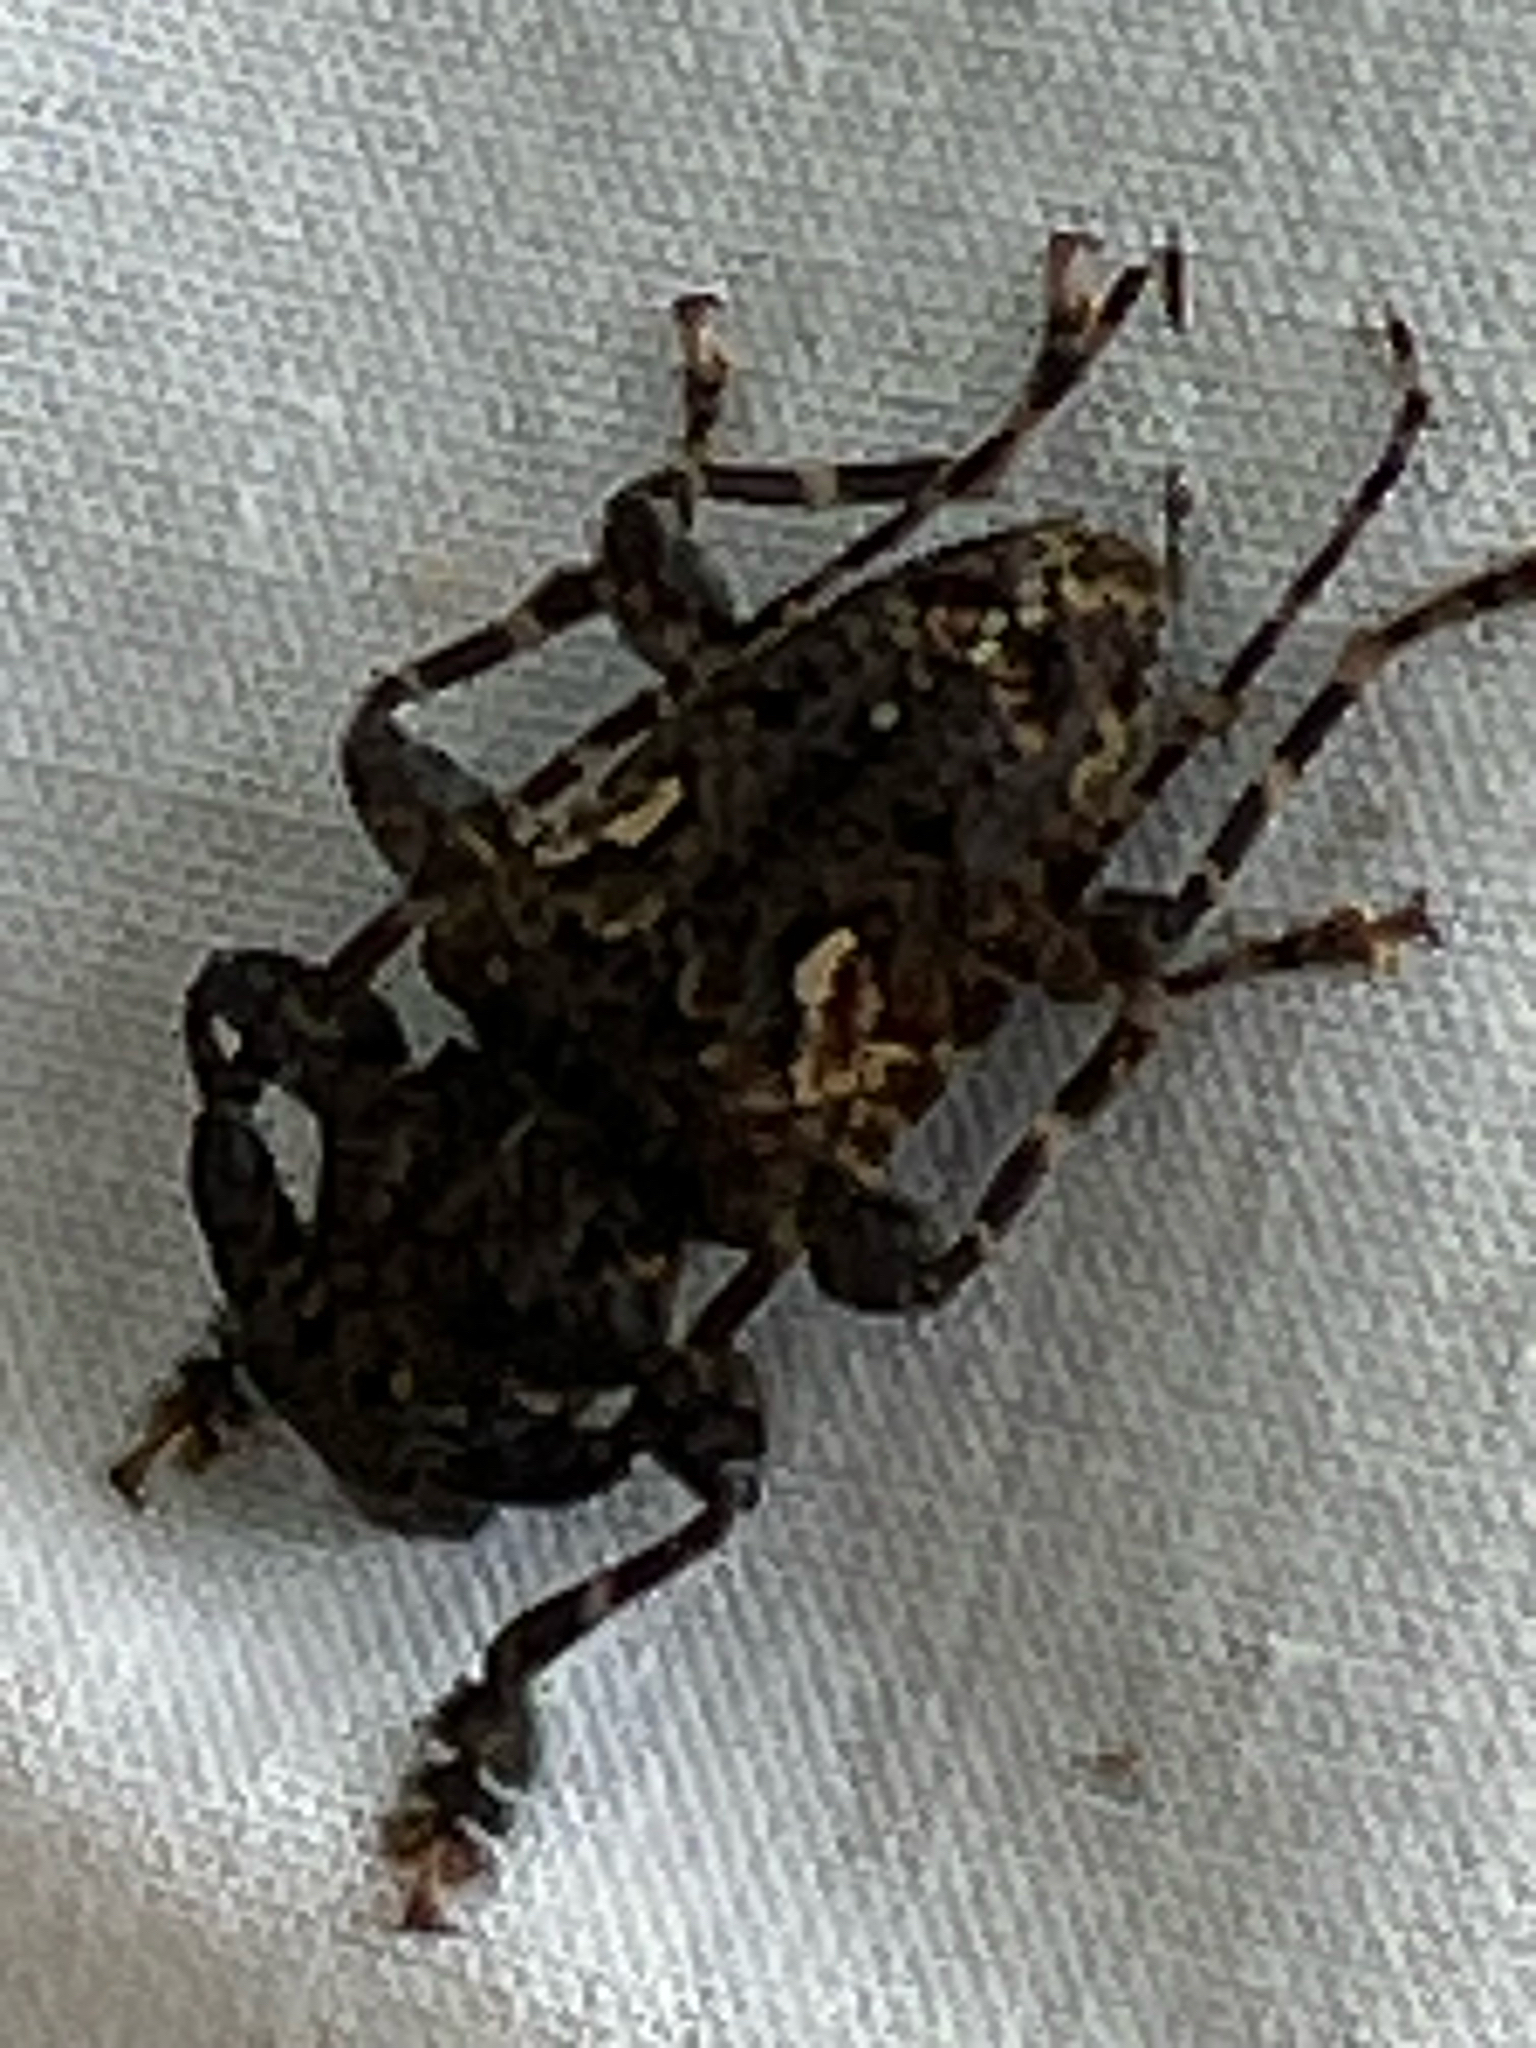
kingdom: Animalia
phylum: Arthropoda
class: Insecta
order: Coleoptera
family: Cerambycidae
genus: Psapharochrus
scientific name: Psapharochrus circumflexus
